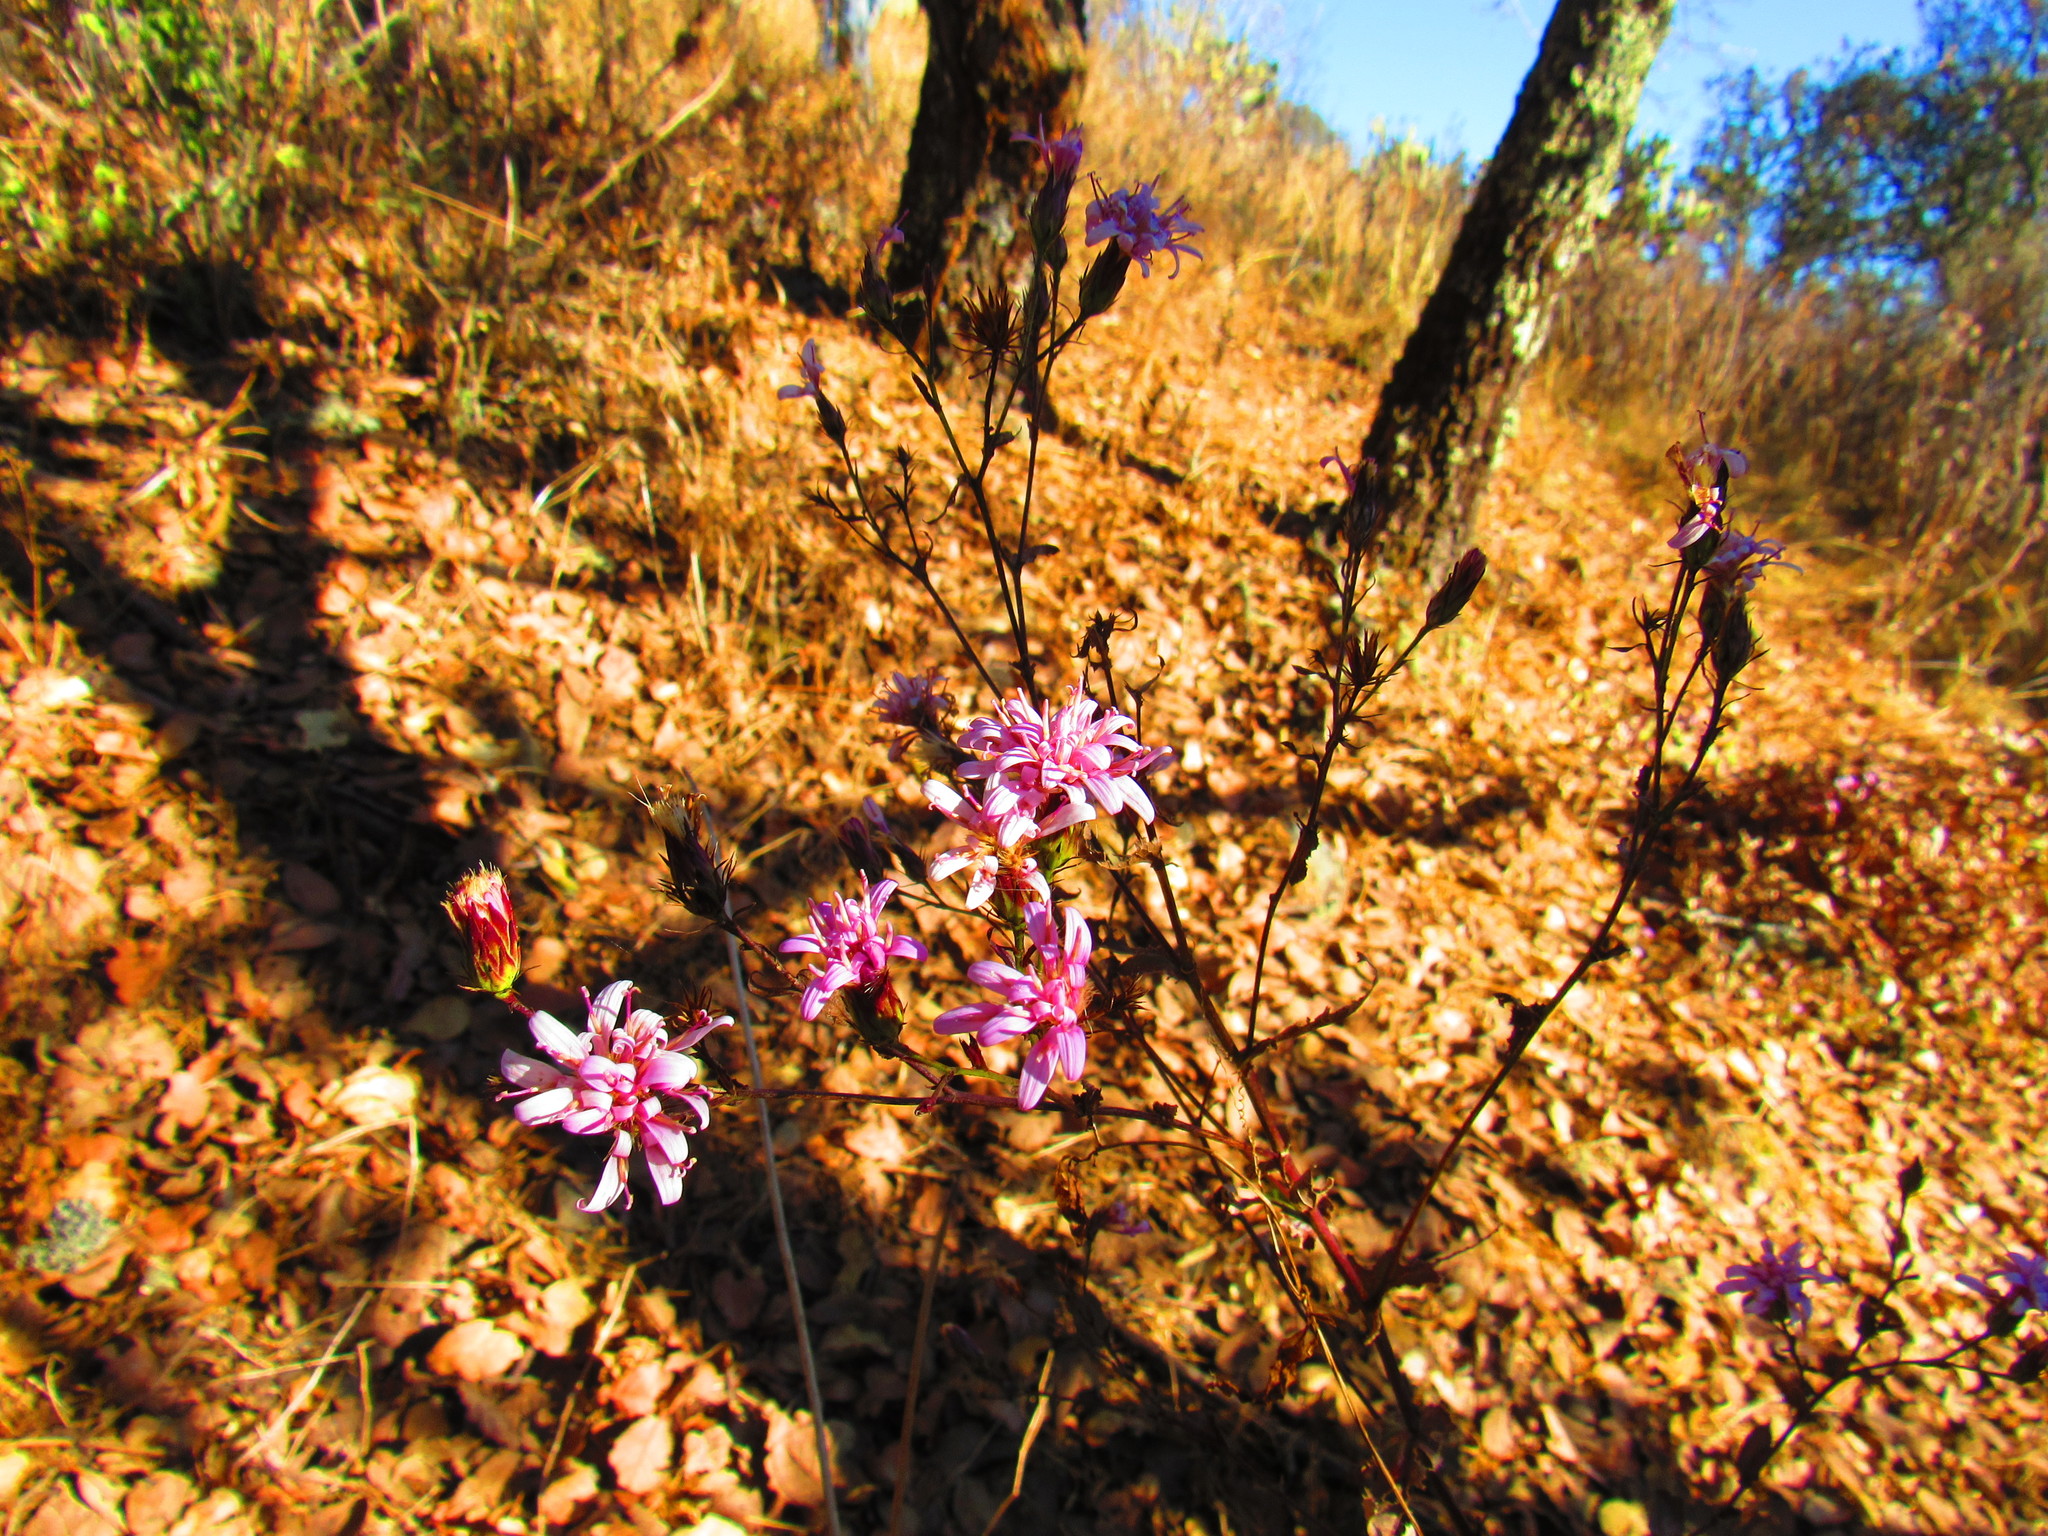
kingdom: Plantae
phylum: Tracheophyta
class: Magnoliopsida
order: Asterales
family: Asteraceae
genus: Acourtia
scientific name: Acourtia purpusii
